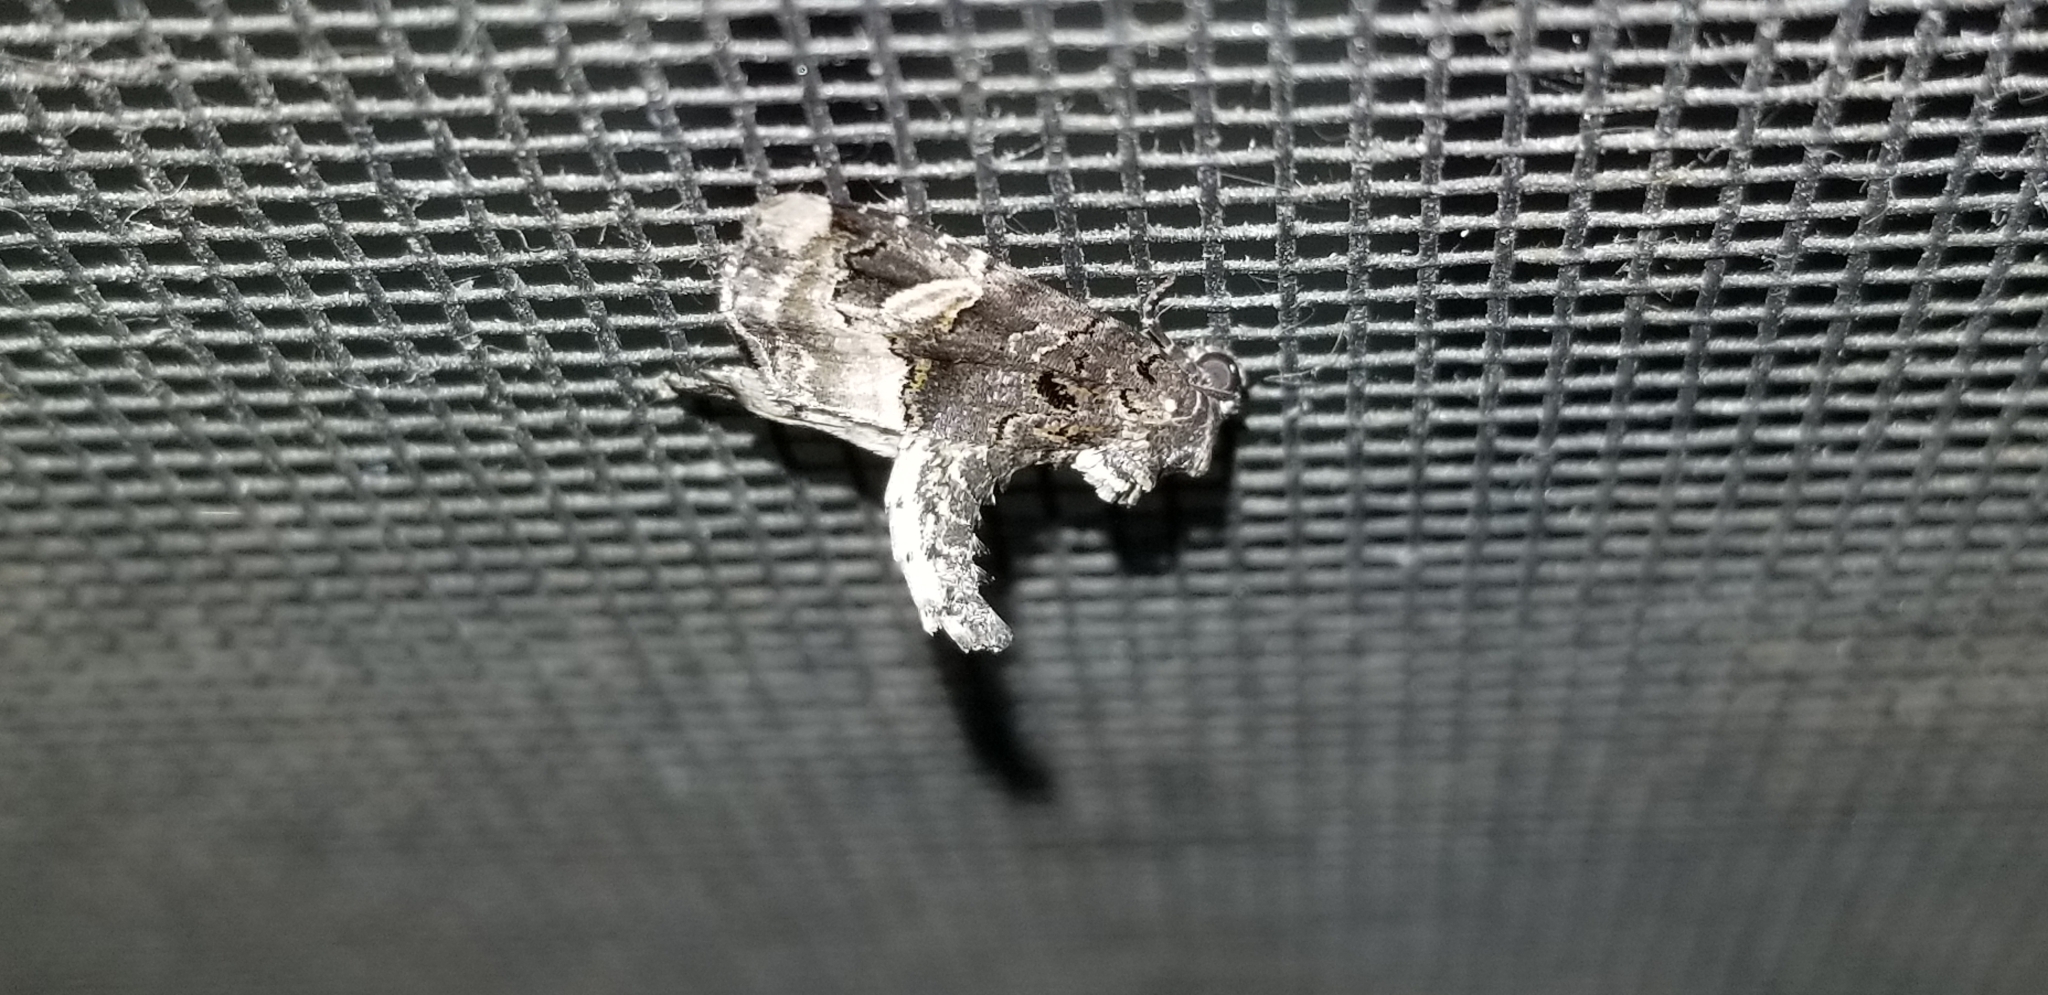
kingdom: Animalia
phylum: Arthropoda
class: Insecta
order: Lepidoptera
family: Noctuidae
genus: Homophoberia
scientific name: Homophoberia apicosa
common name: Black wedge-spot
